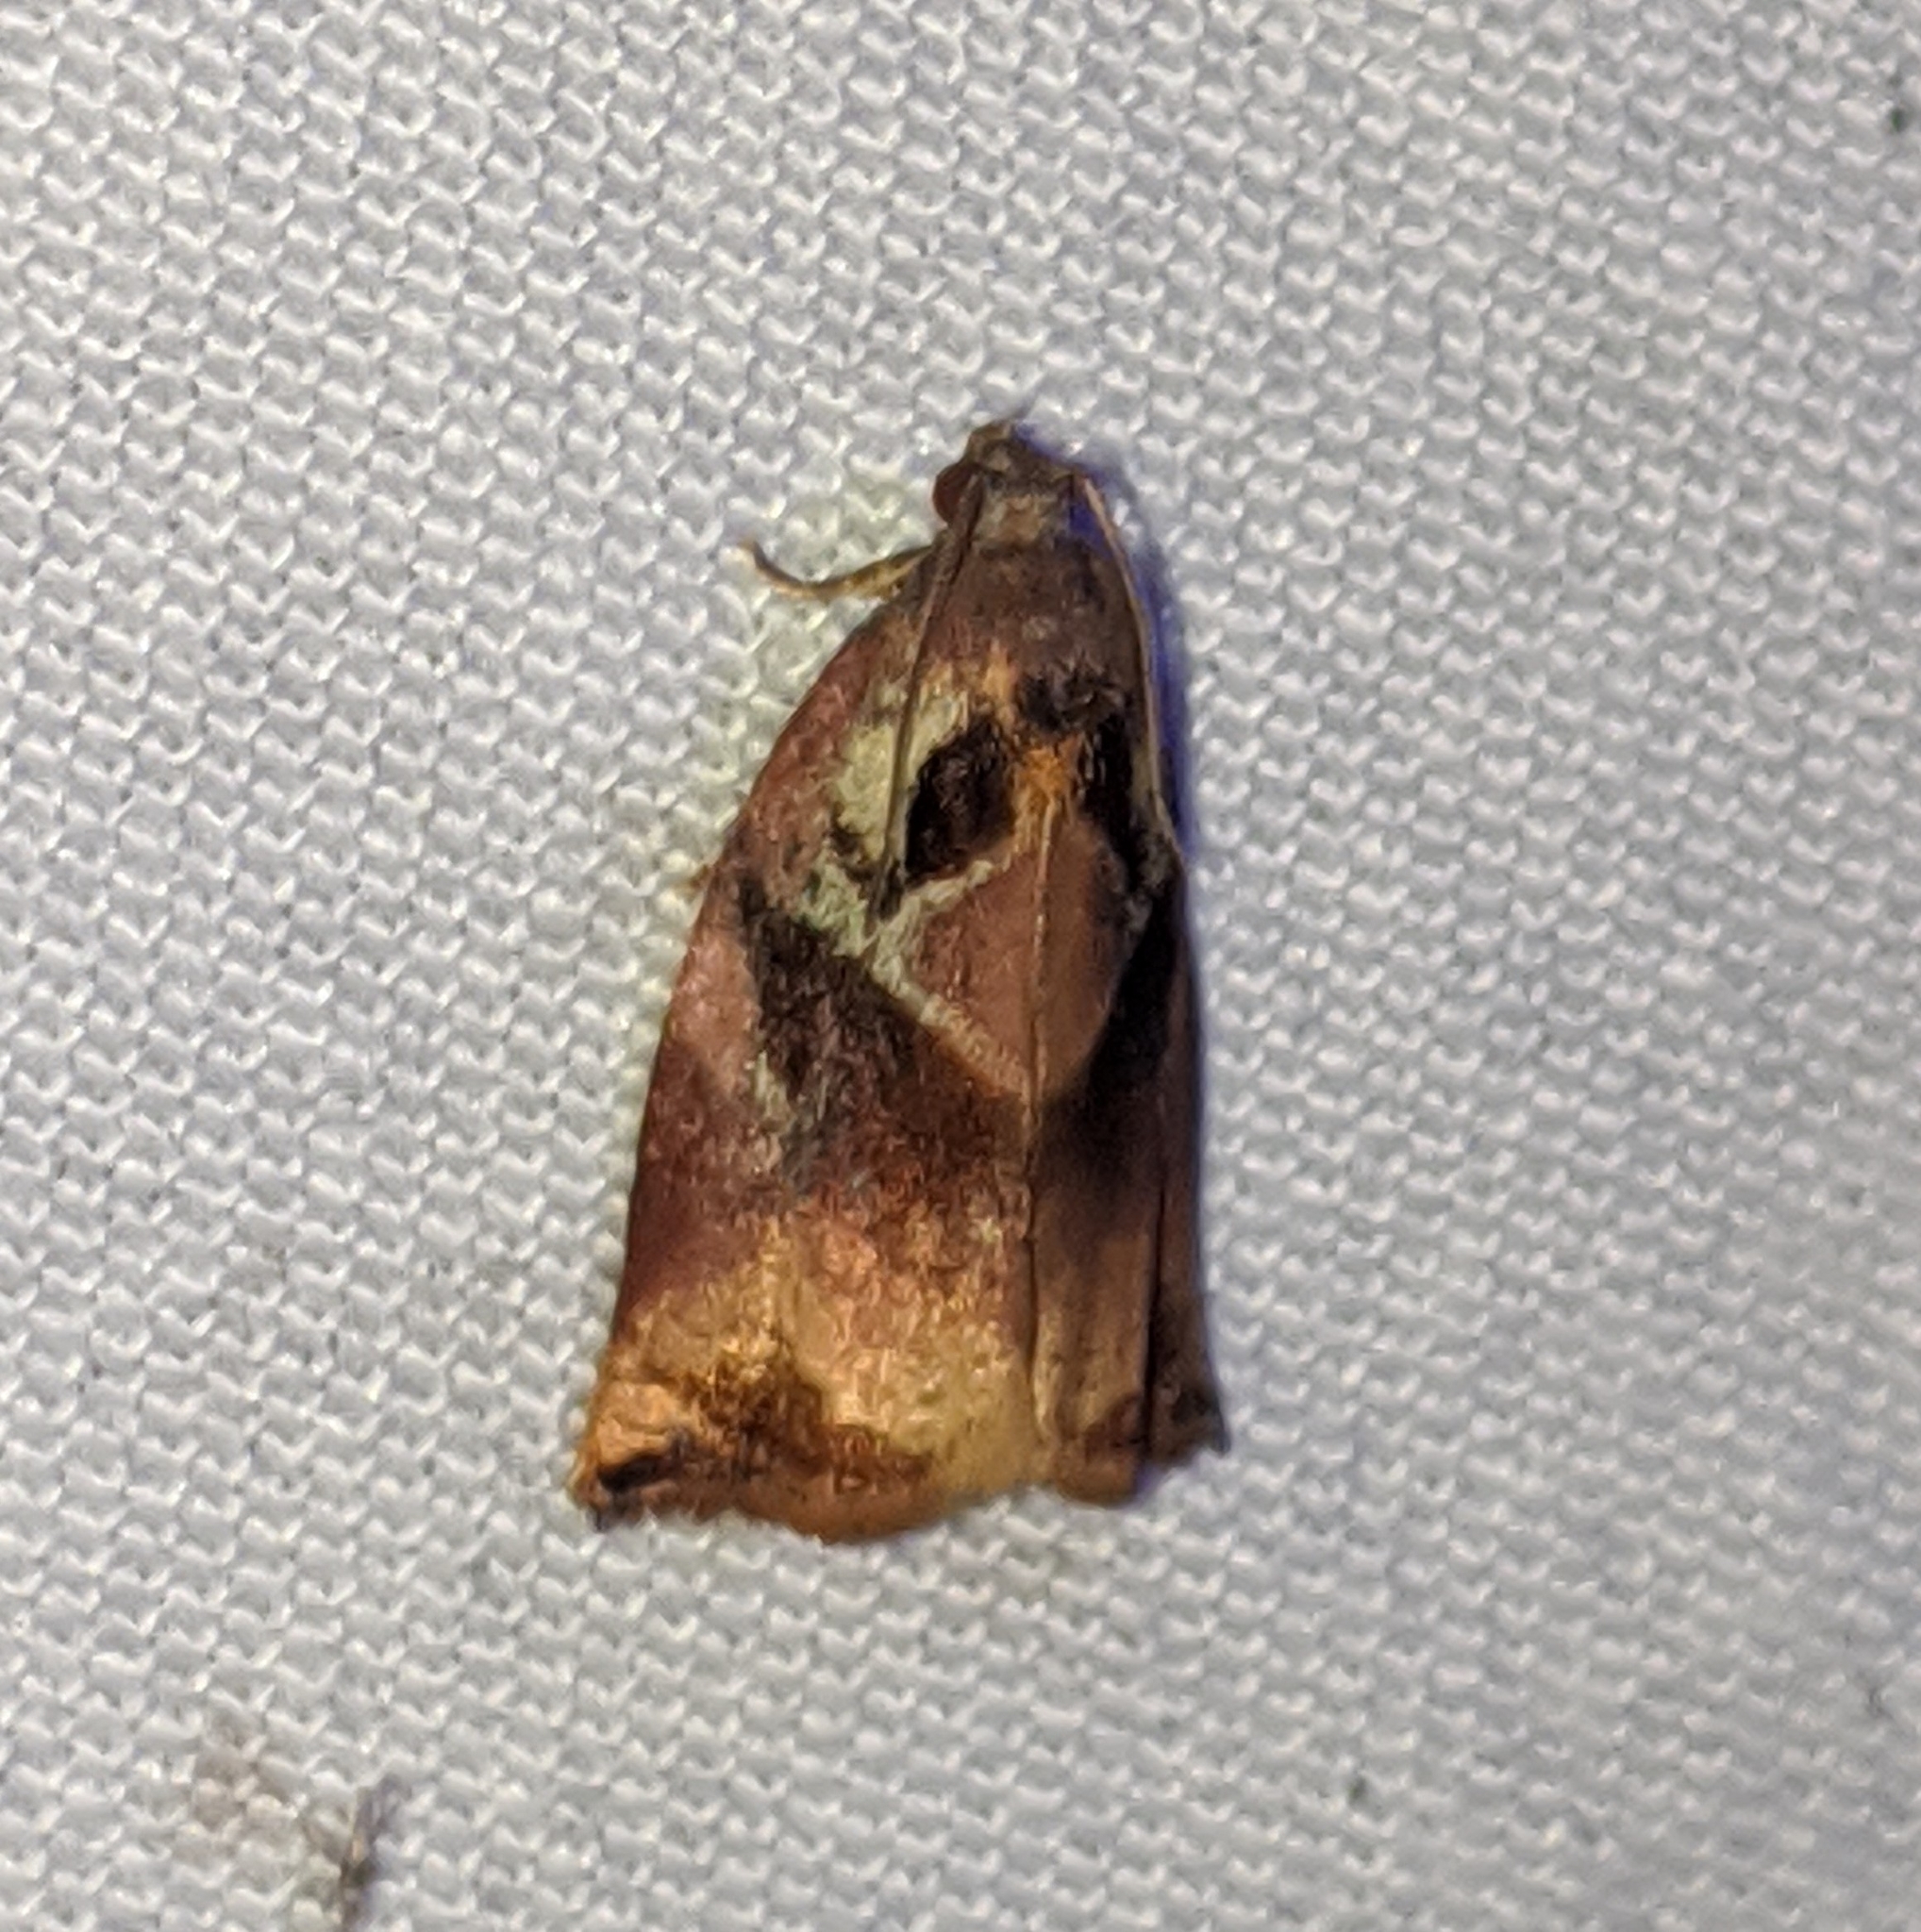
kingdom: Animalia
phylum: Arthropoda
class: Insecta
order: Lepidoptera
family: Tortricidae
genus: Archips
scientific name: Archips podana
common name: Large fruit-tree tortrix
